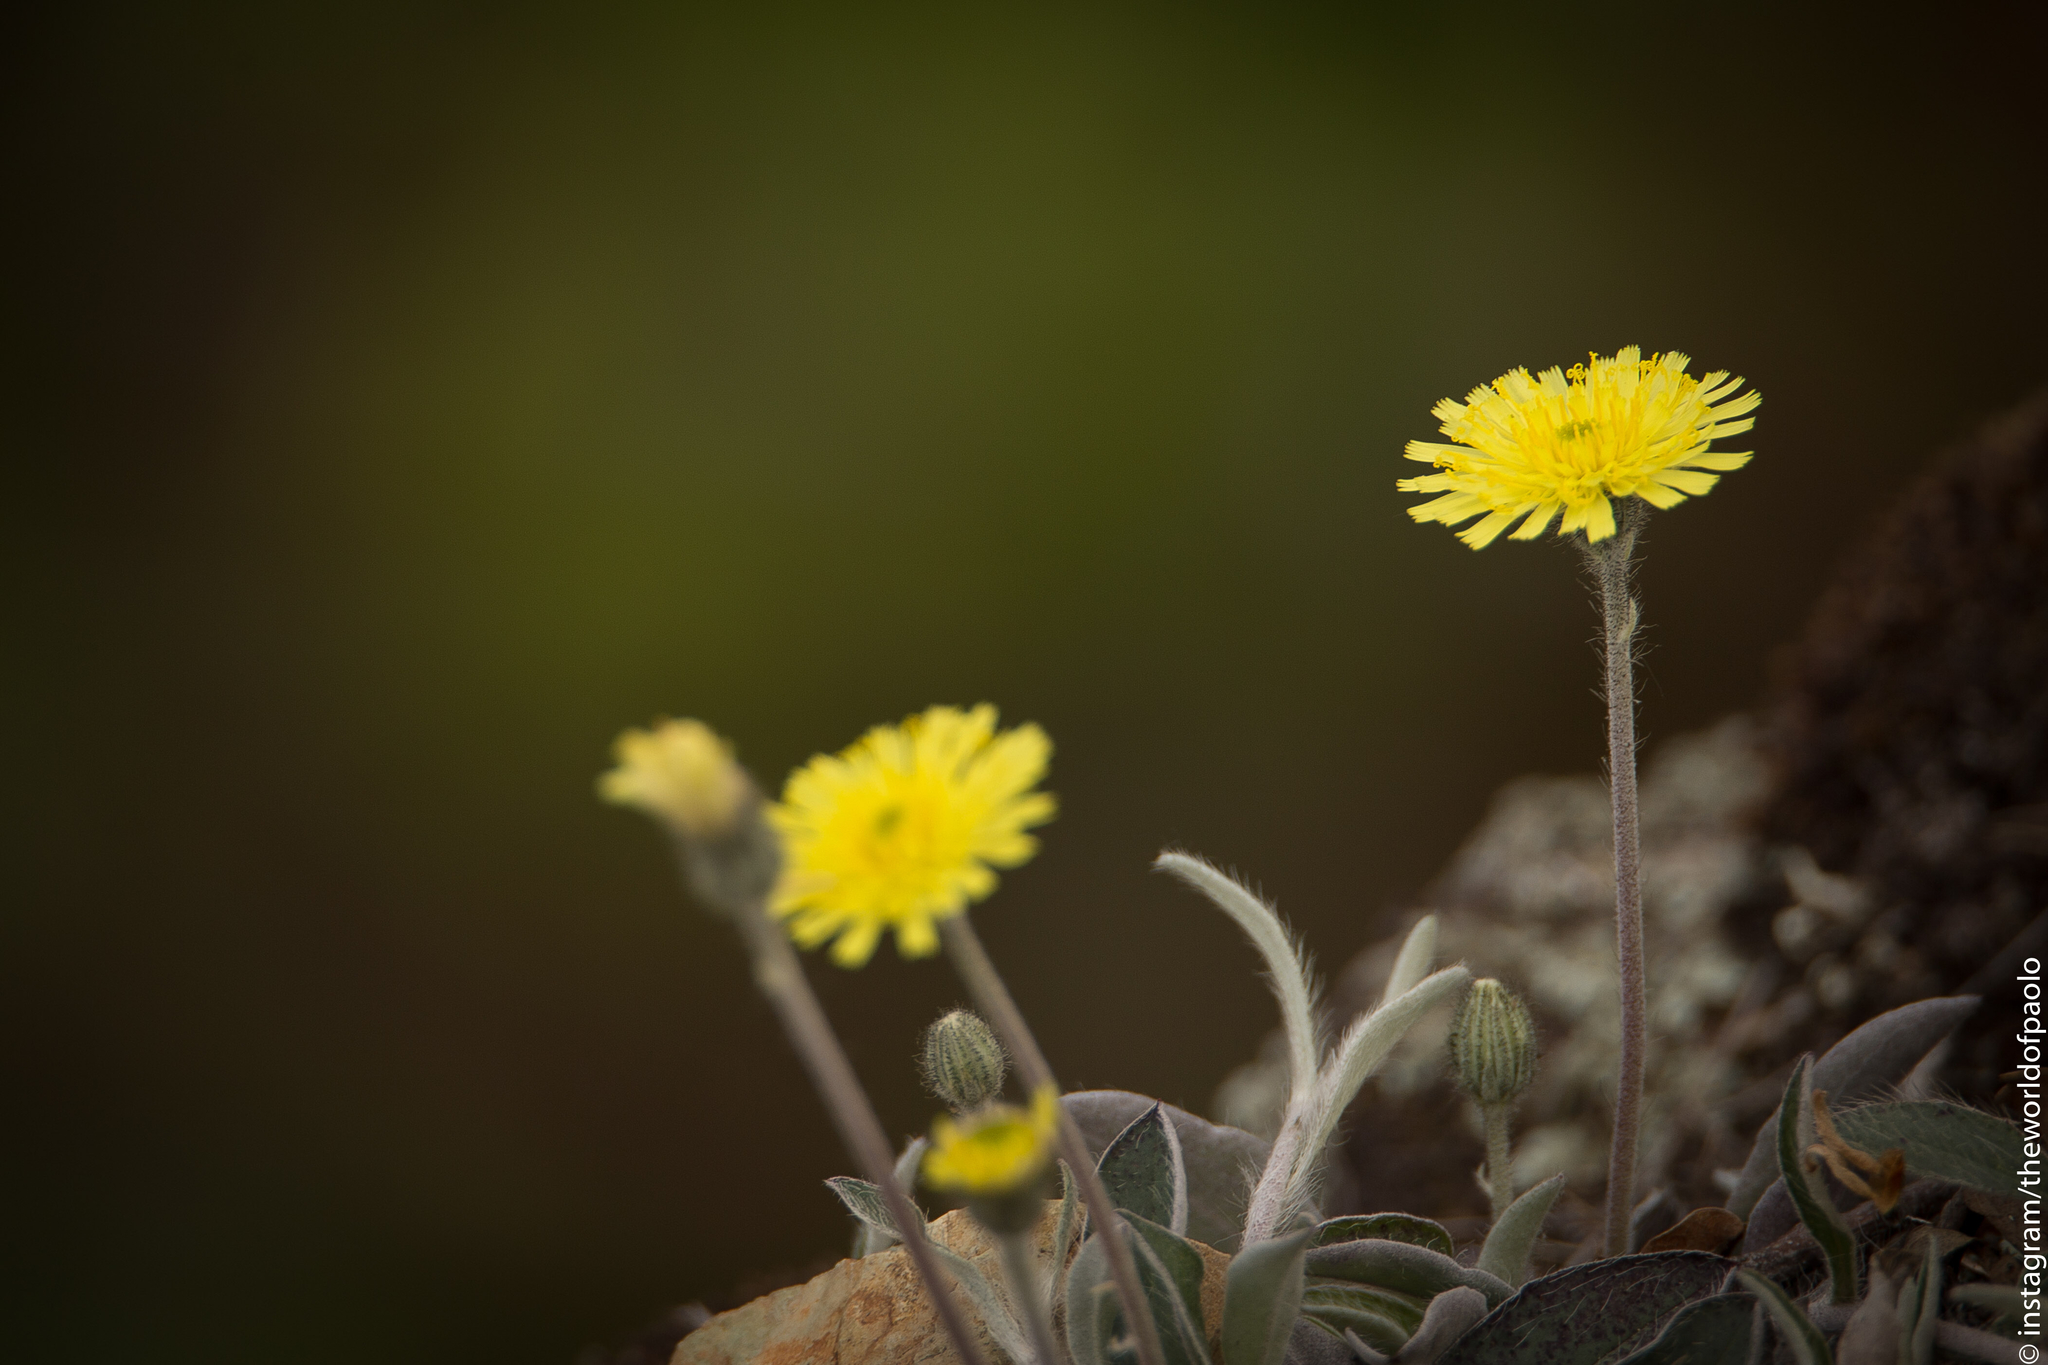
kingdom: Plantae
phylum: Tracheophyta
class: Magnoliopsida
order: Asterales
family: Asteraceae
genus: Pilosella
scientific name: Pilosella officinarum
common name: Mouse-ear hawkweed
